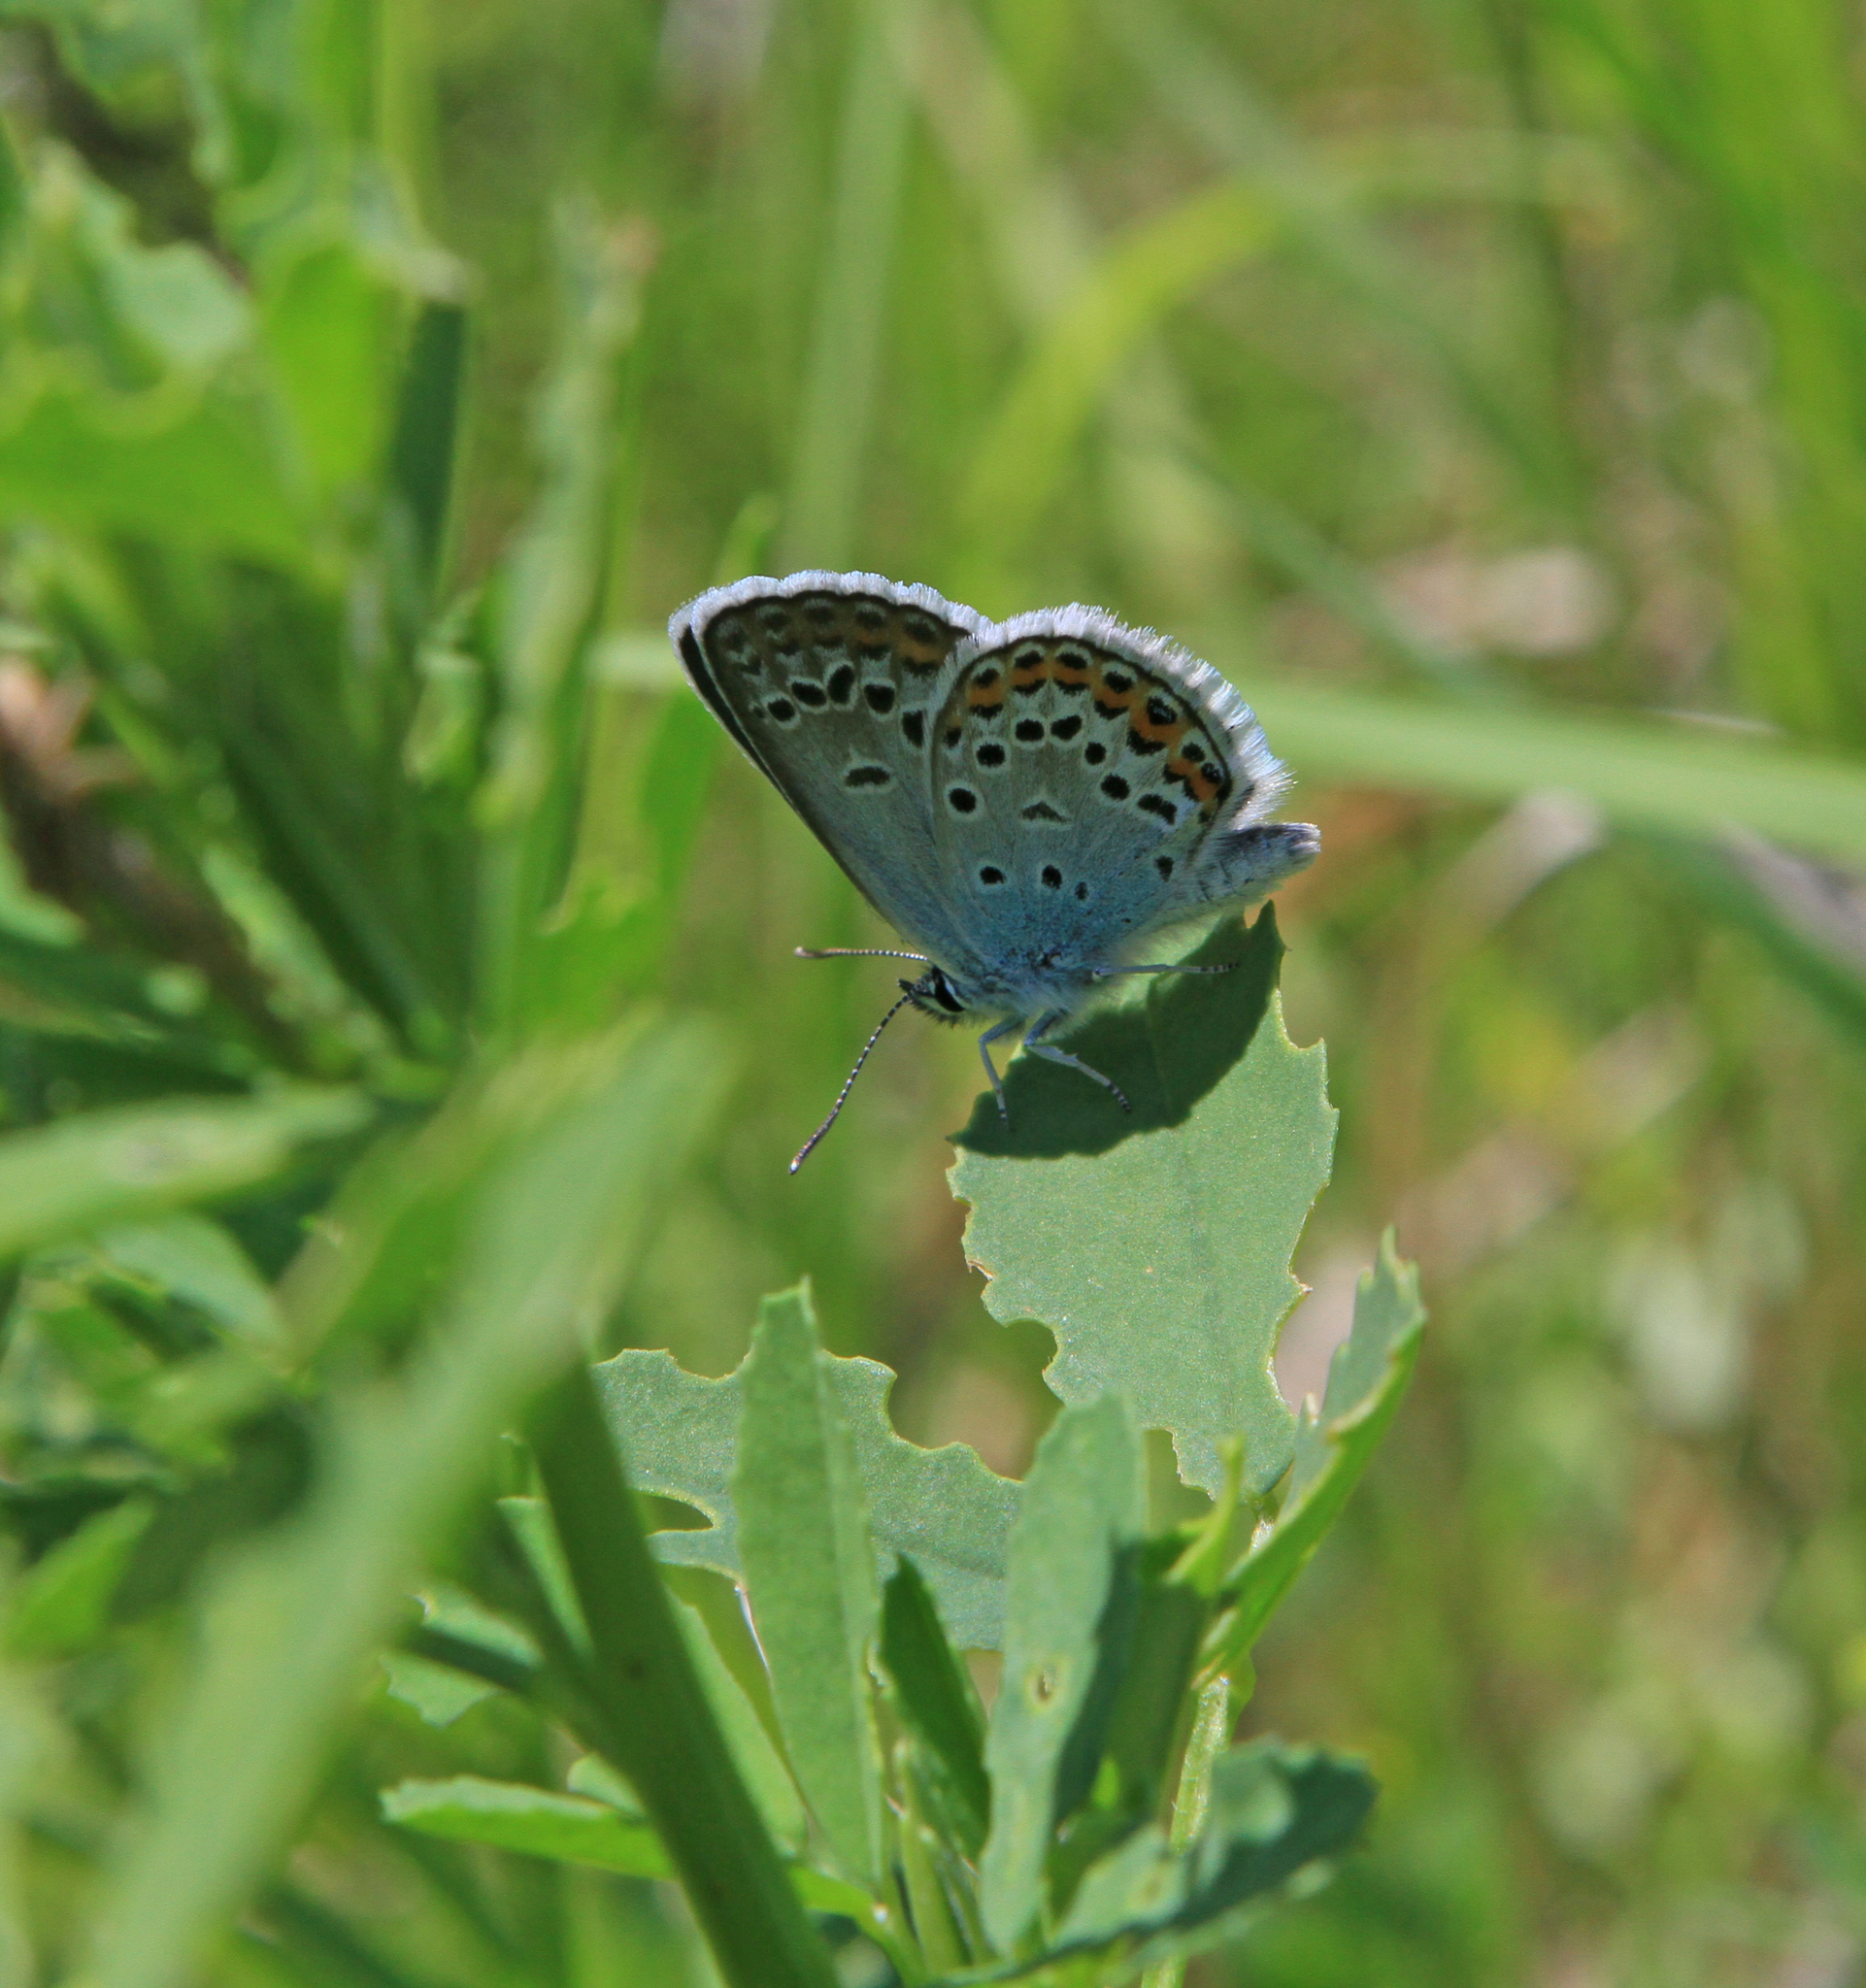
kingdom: Animalia
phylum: Arthropoda
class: Insecta
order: Lepidoptera
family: Lycaenidae
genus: Plebejus
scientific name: Plebejus argus
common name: Silver-studded blue
